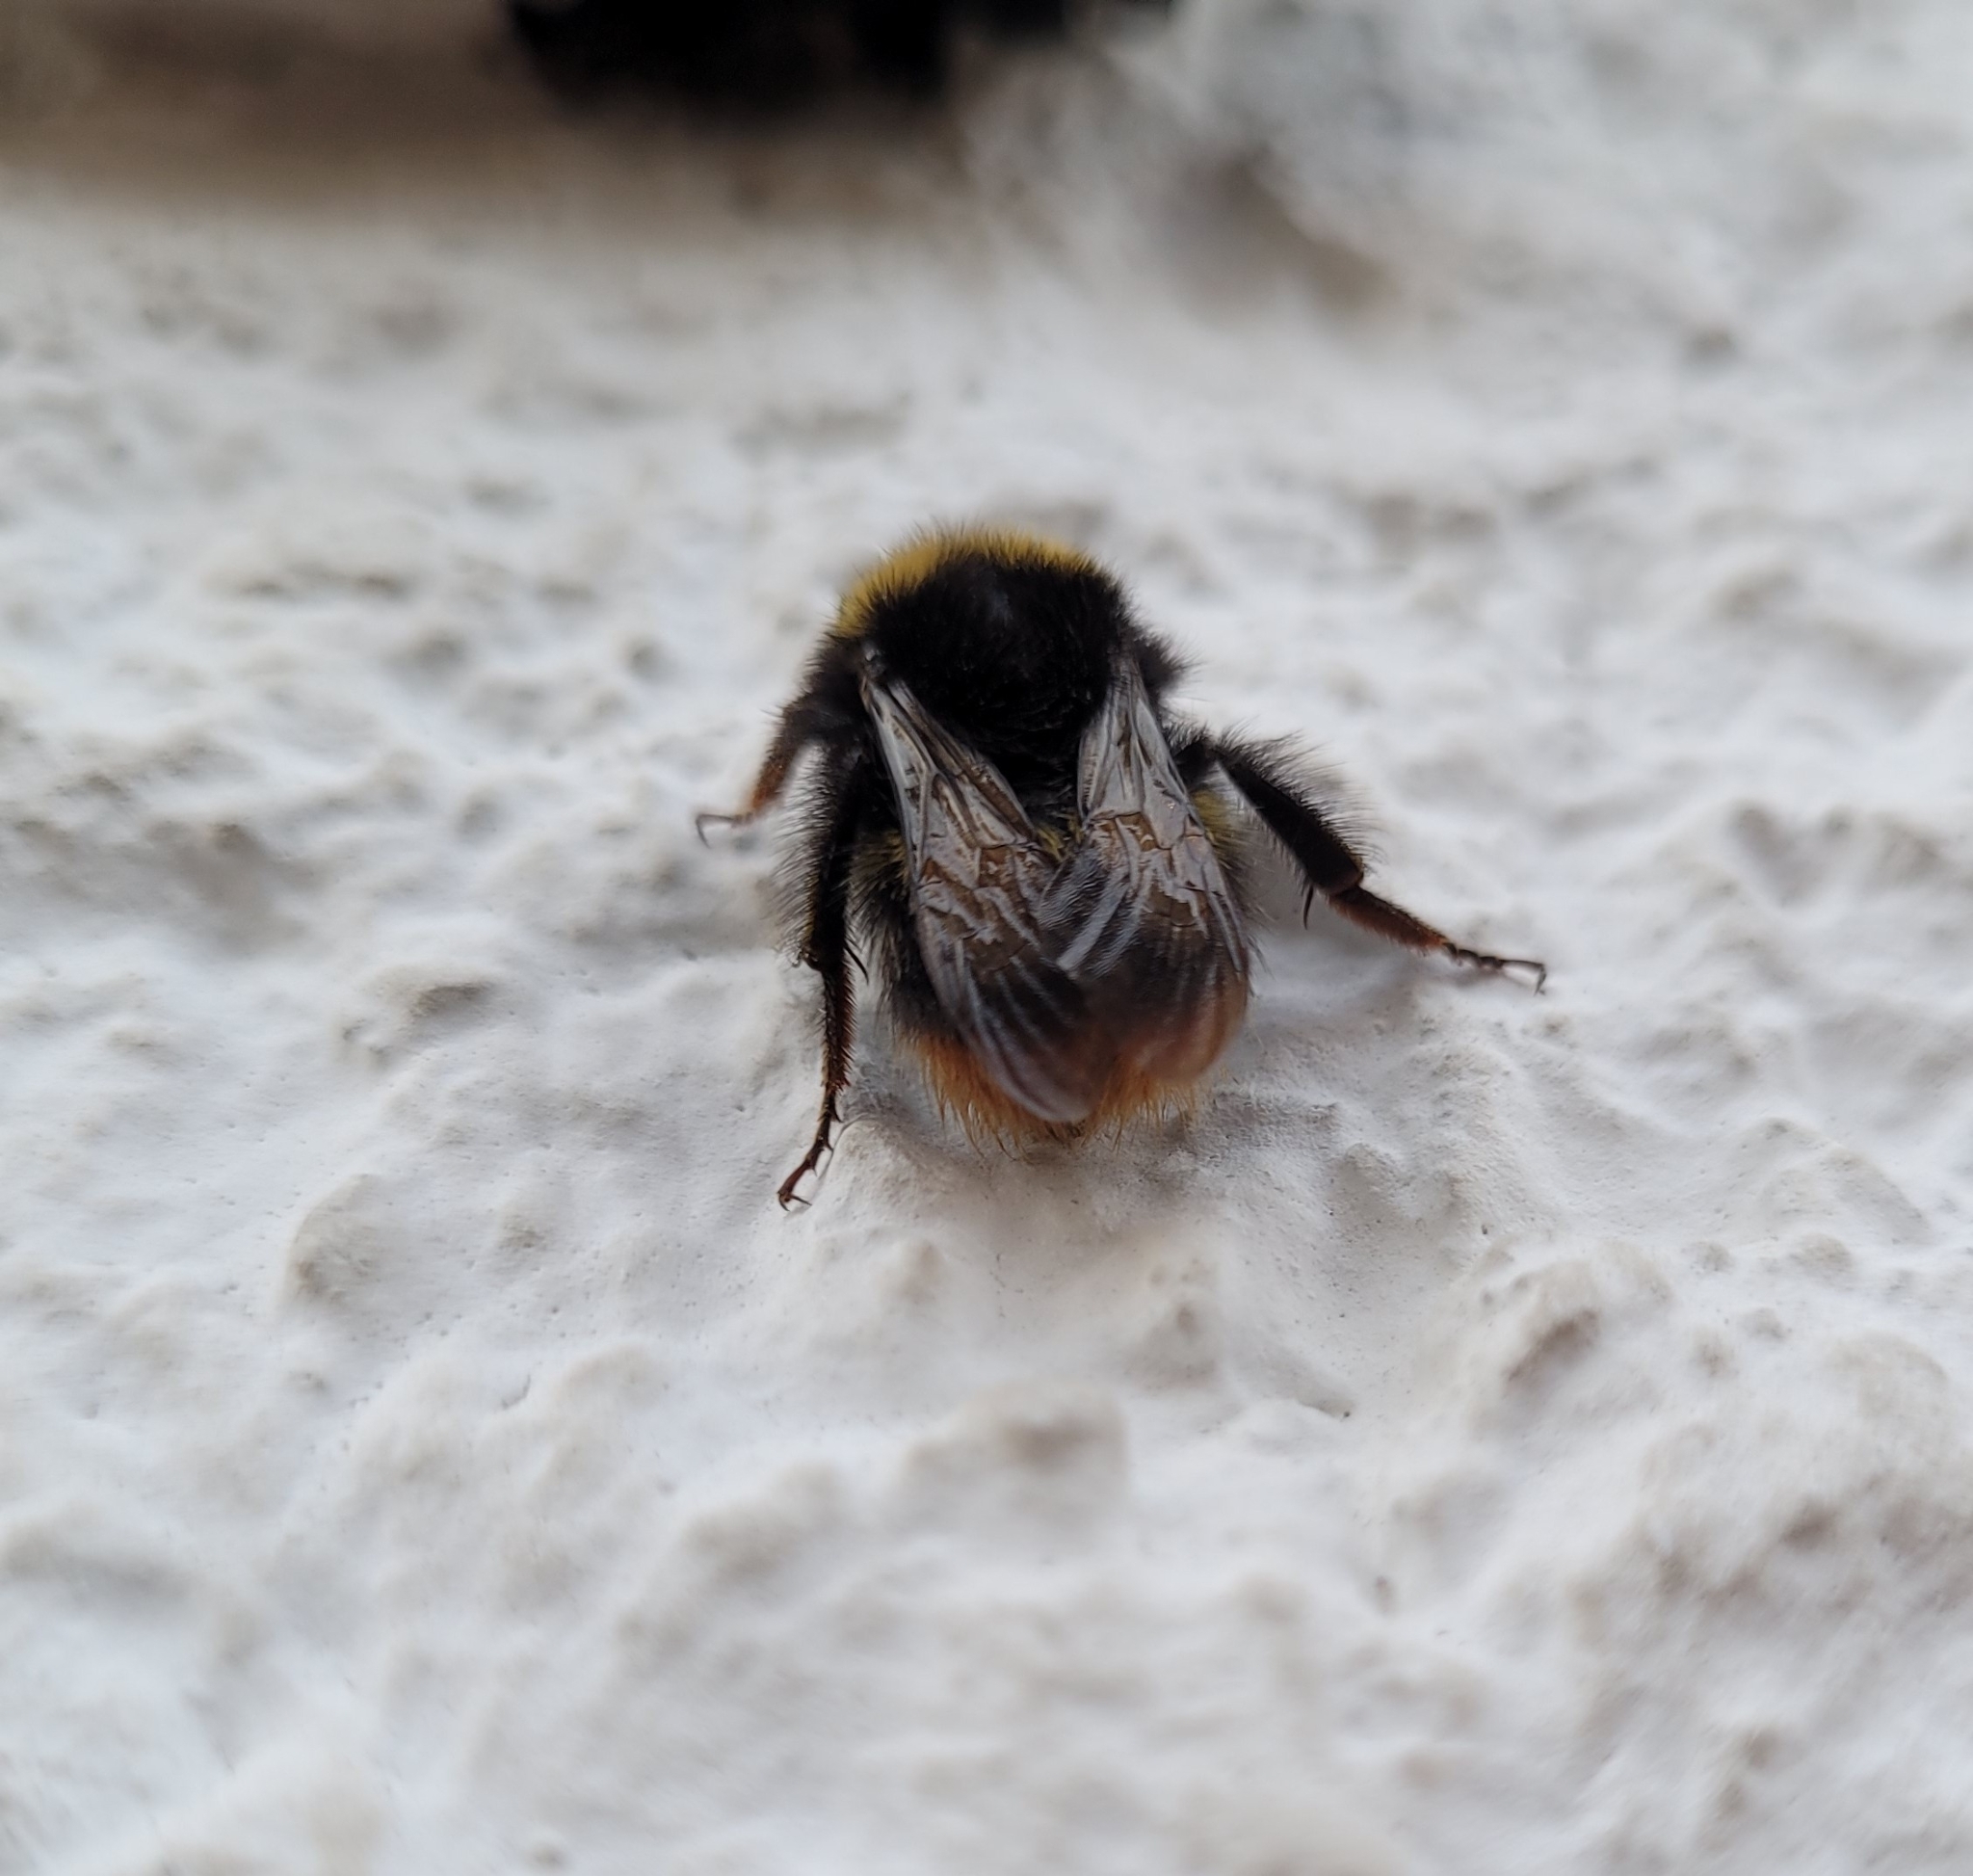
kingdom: Animalia
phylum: Arthropoda
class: Insecta
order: Hymenoptera
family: Apidae
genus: Bombus
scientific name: Bombus pratorum
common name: Early humble-bee
